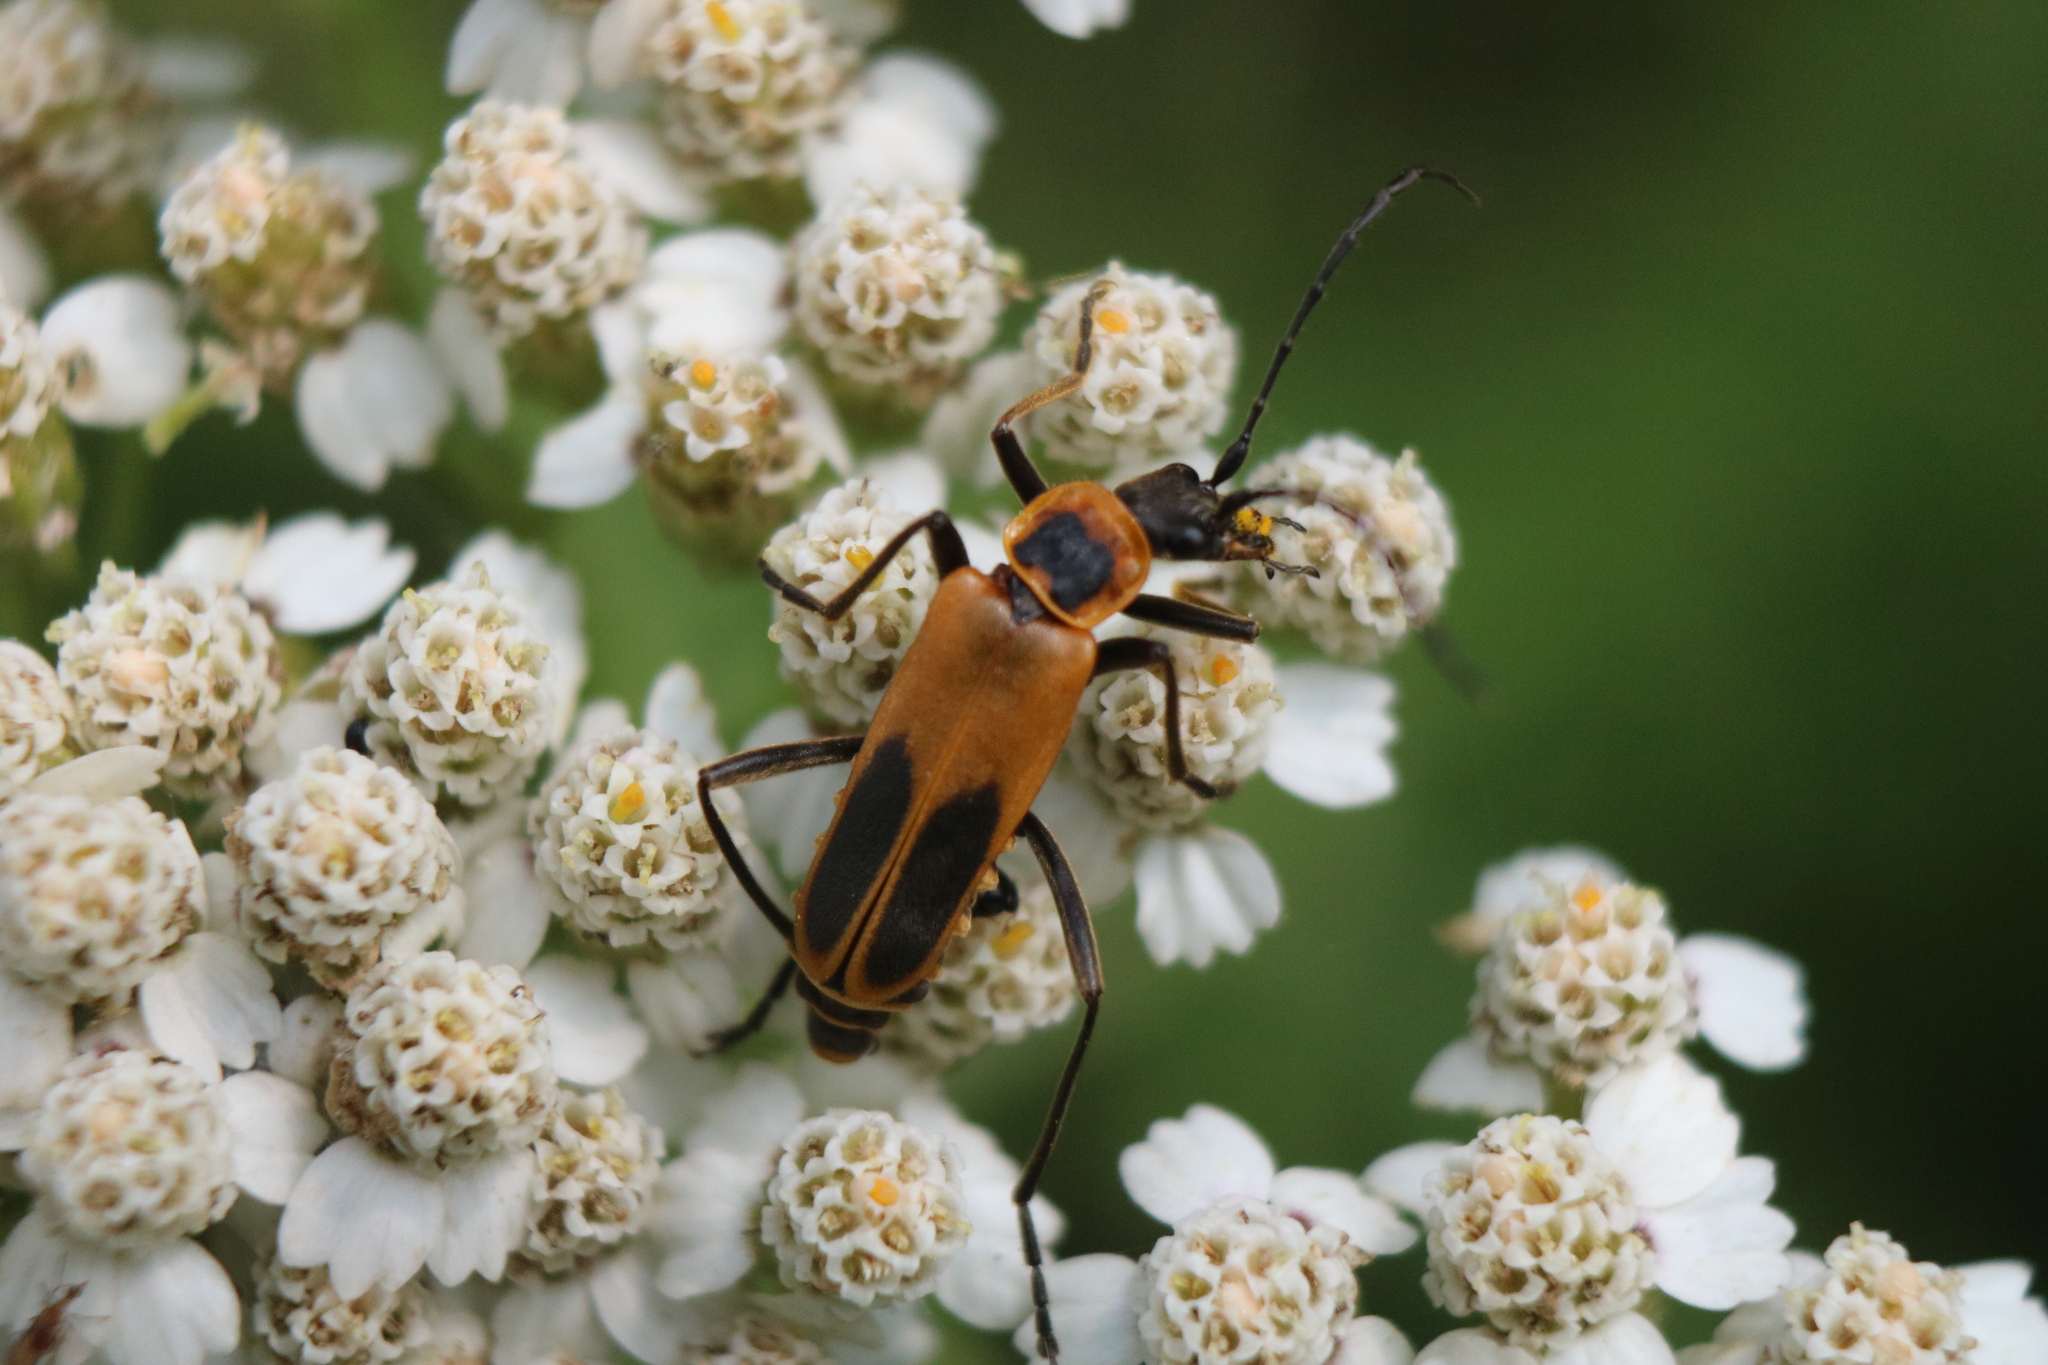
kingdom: Animalia
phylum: Arthropoda
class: Insecta
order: Coleoptera
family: Cantharidae
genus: Chauliognathus
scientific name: Chauliognathus pensylvanicus
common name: Goldenrod soldier beetle
